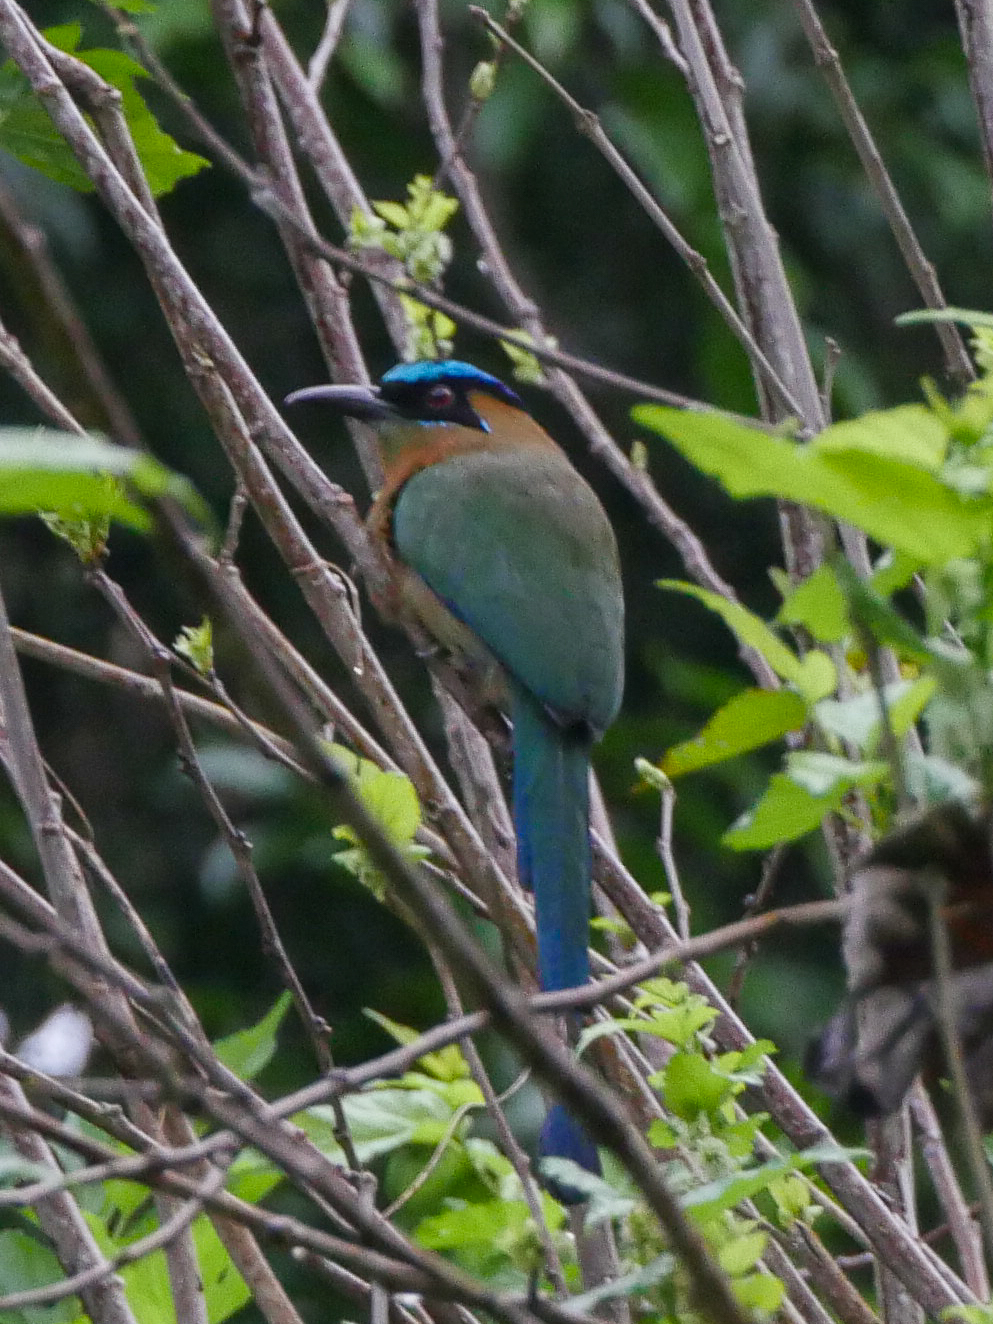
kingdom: Animalia
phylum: Chordata
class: Aves
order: Coraciiformes
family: Momotidae
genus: Momotus
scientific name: Momotus lessonii
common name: Lesson's motmot
